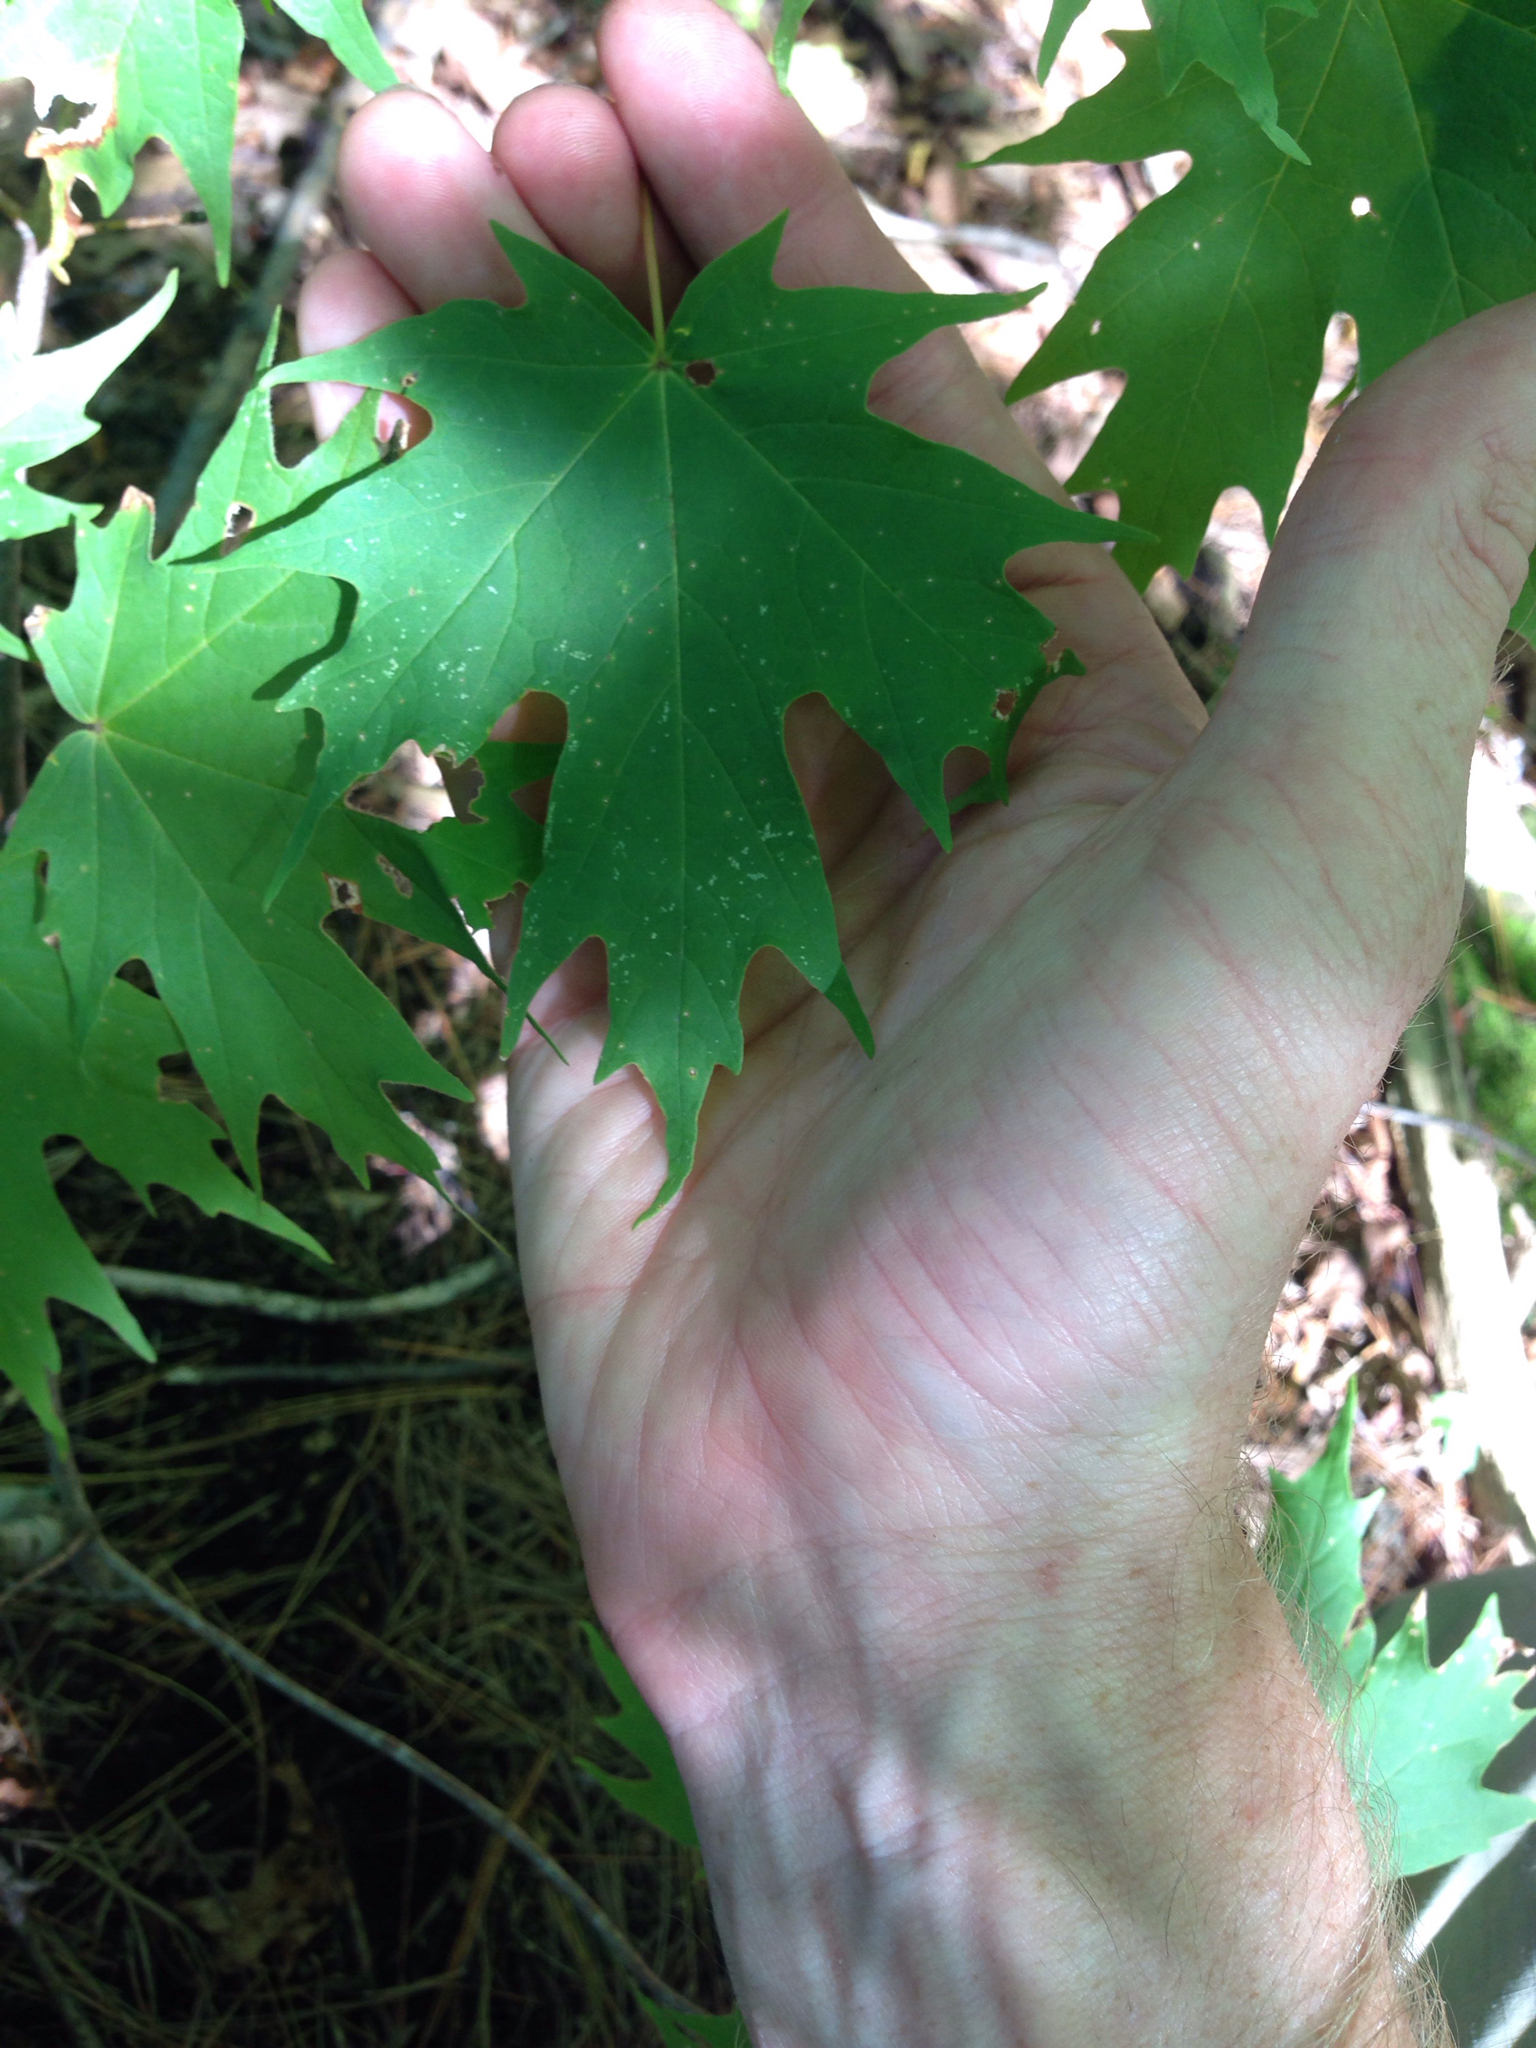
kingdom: Plantae
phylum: Tracheophyta
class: Magnoliopsida
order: Sapindales
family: Sapindaceae
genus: Acer
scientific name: Acer saccharum
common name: Sugar maple
